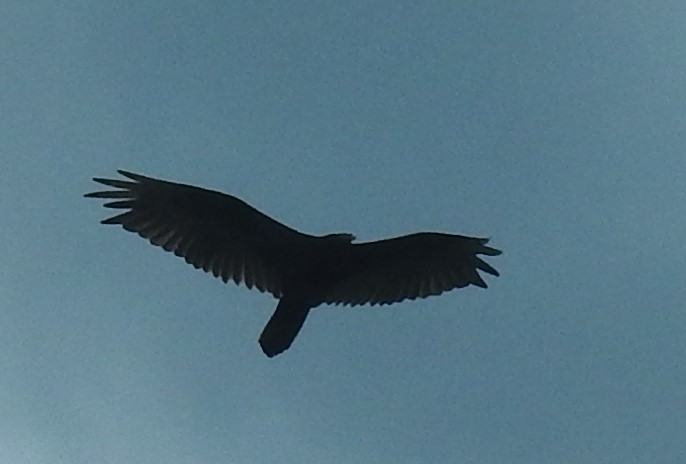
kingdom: Animalia
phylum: Chordata
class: Aves
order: Accipitriformes
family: Cathartidae
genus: Cathartes
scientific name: Cathartes aura
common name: Turkey vulture
